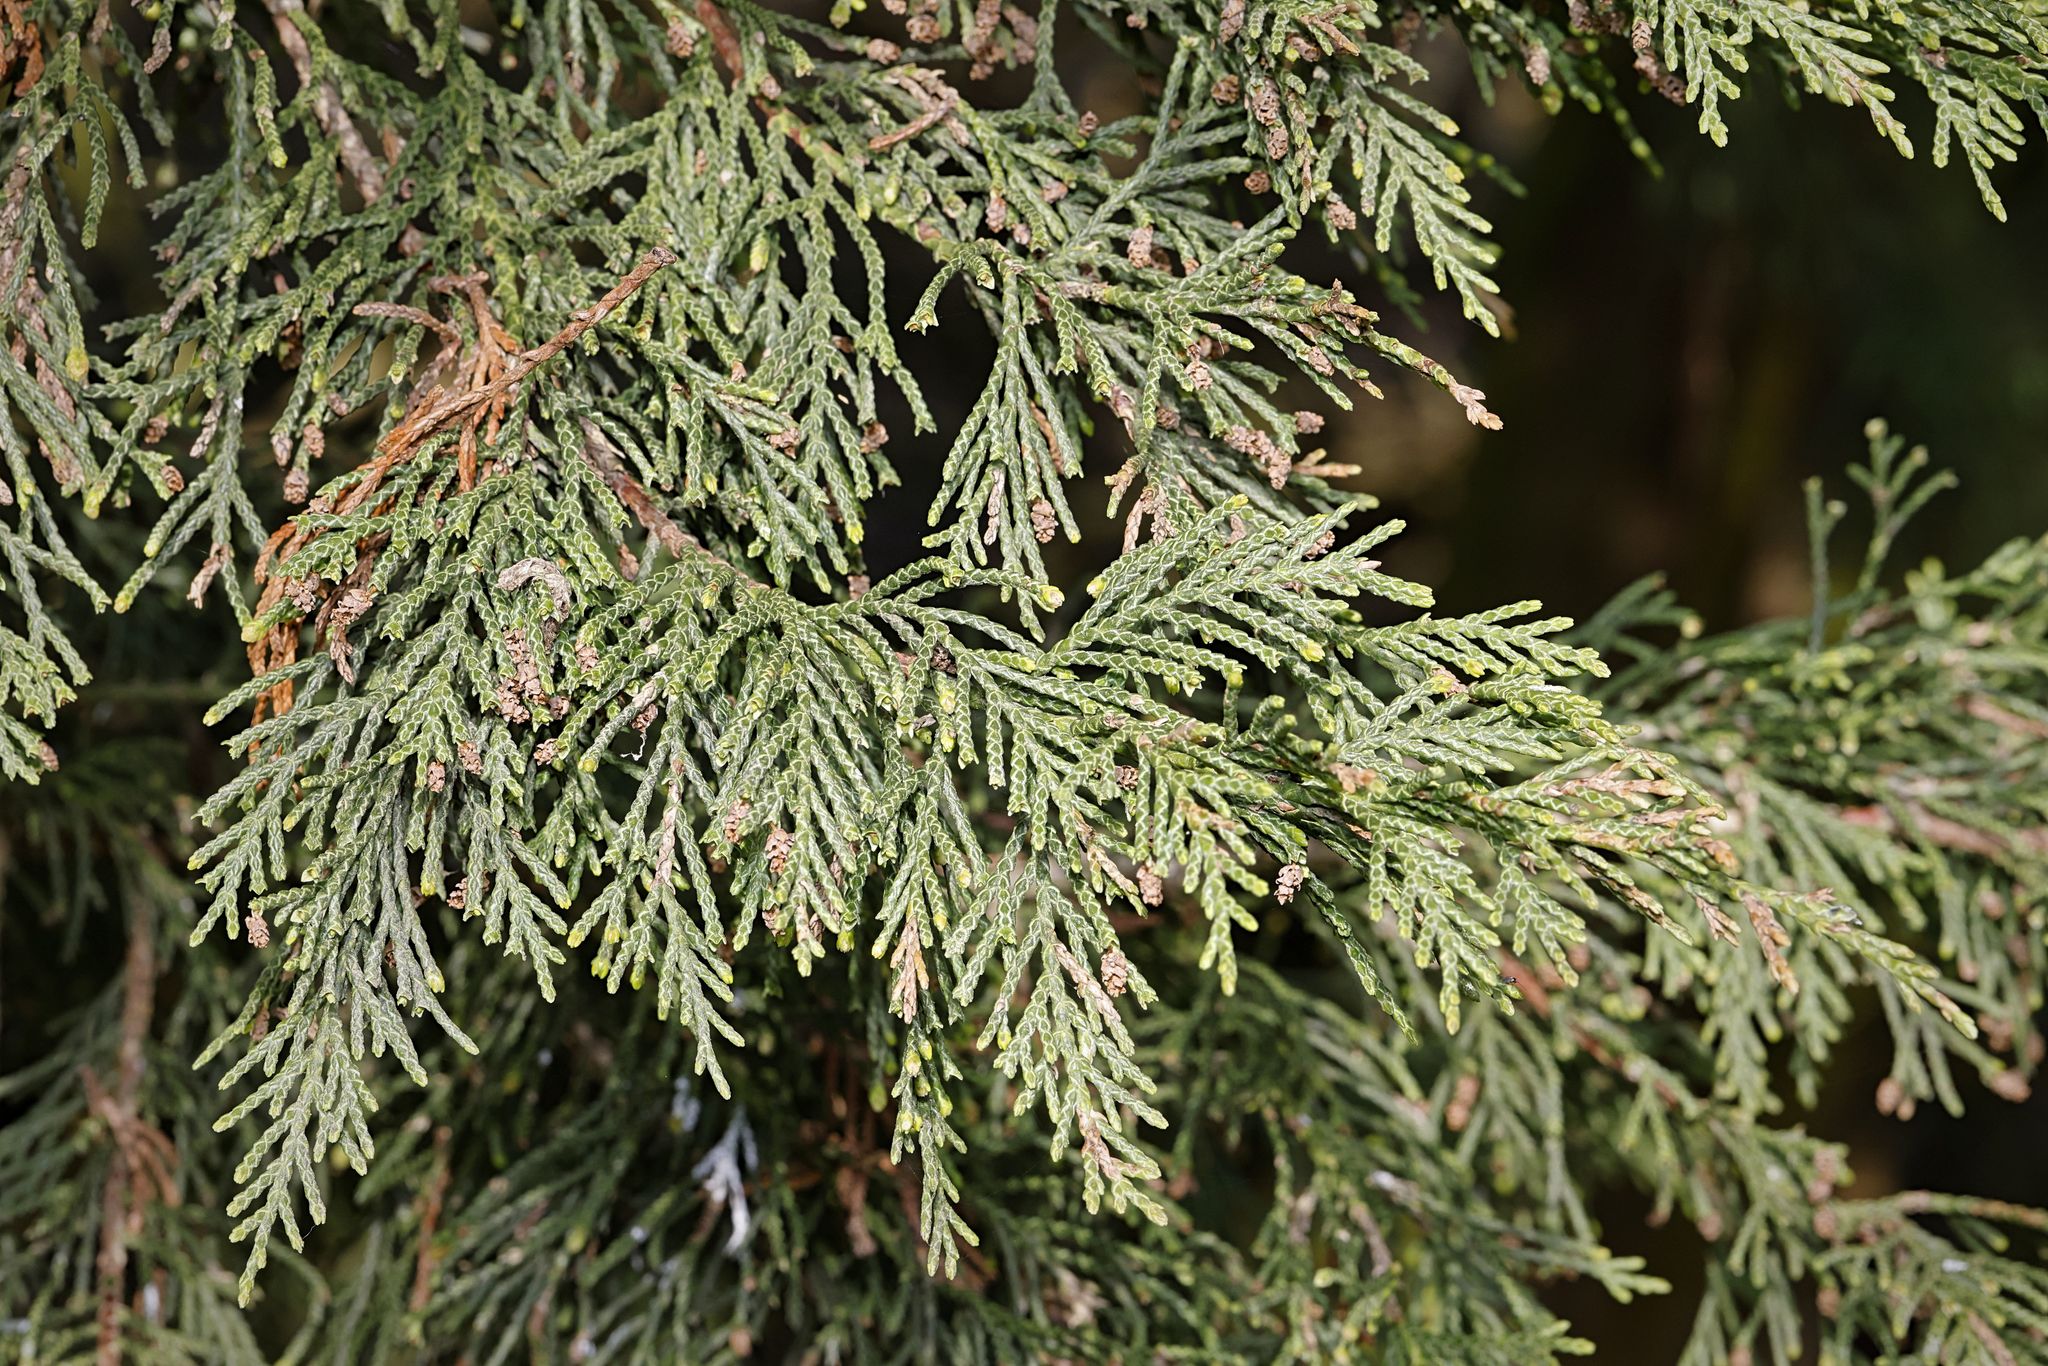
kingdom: Plantae
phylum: Tracheophyta
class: Pinopsida
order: Pinales
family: Cupressaceae
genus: Chamaecyparis
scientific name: Chamaecyparis lawsoniana
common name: Lawson's cypress
